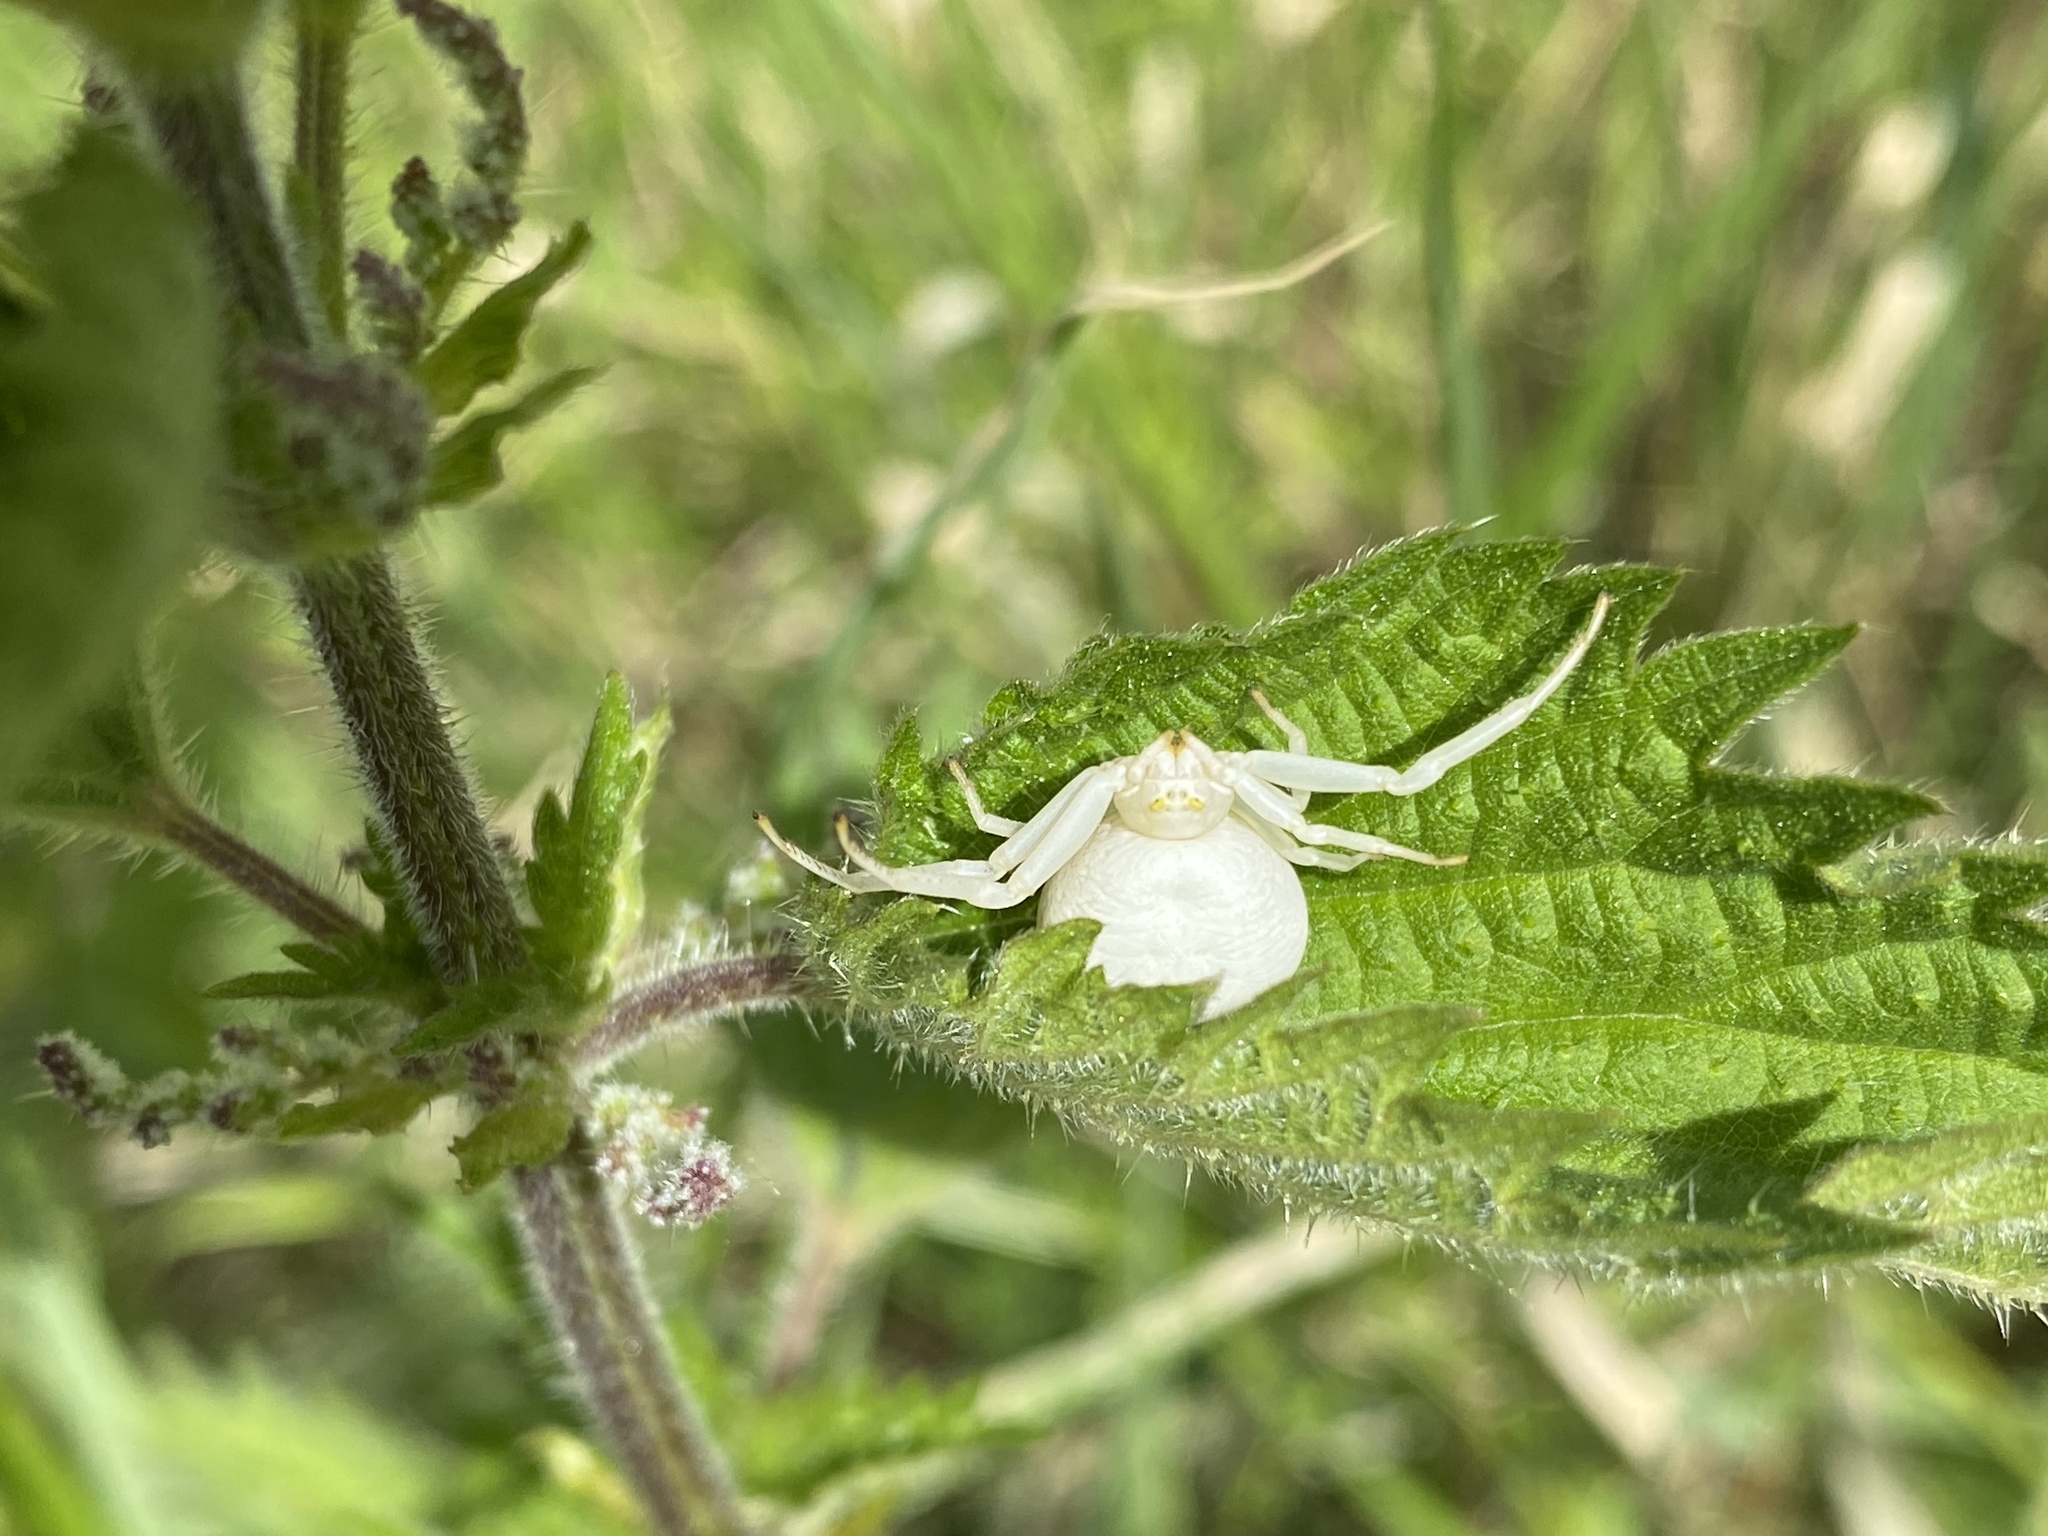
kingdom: Animalia
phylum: Arthropoda
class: Arachnida
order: Araneae
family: Thomisidae
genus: Misumena
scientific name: Misumena vatia
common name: Goldenrod crab spider
